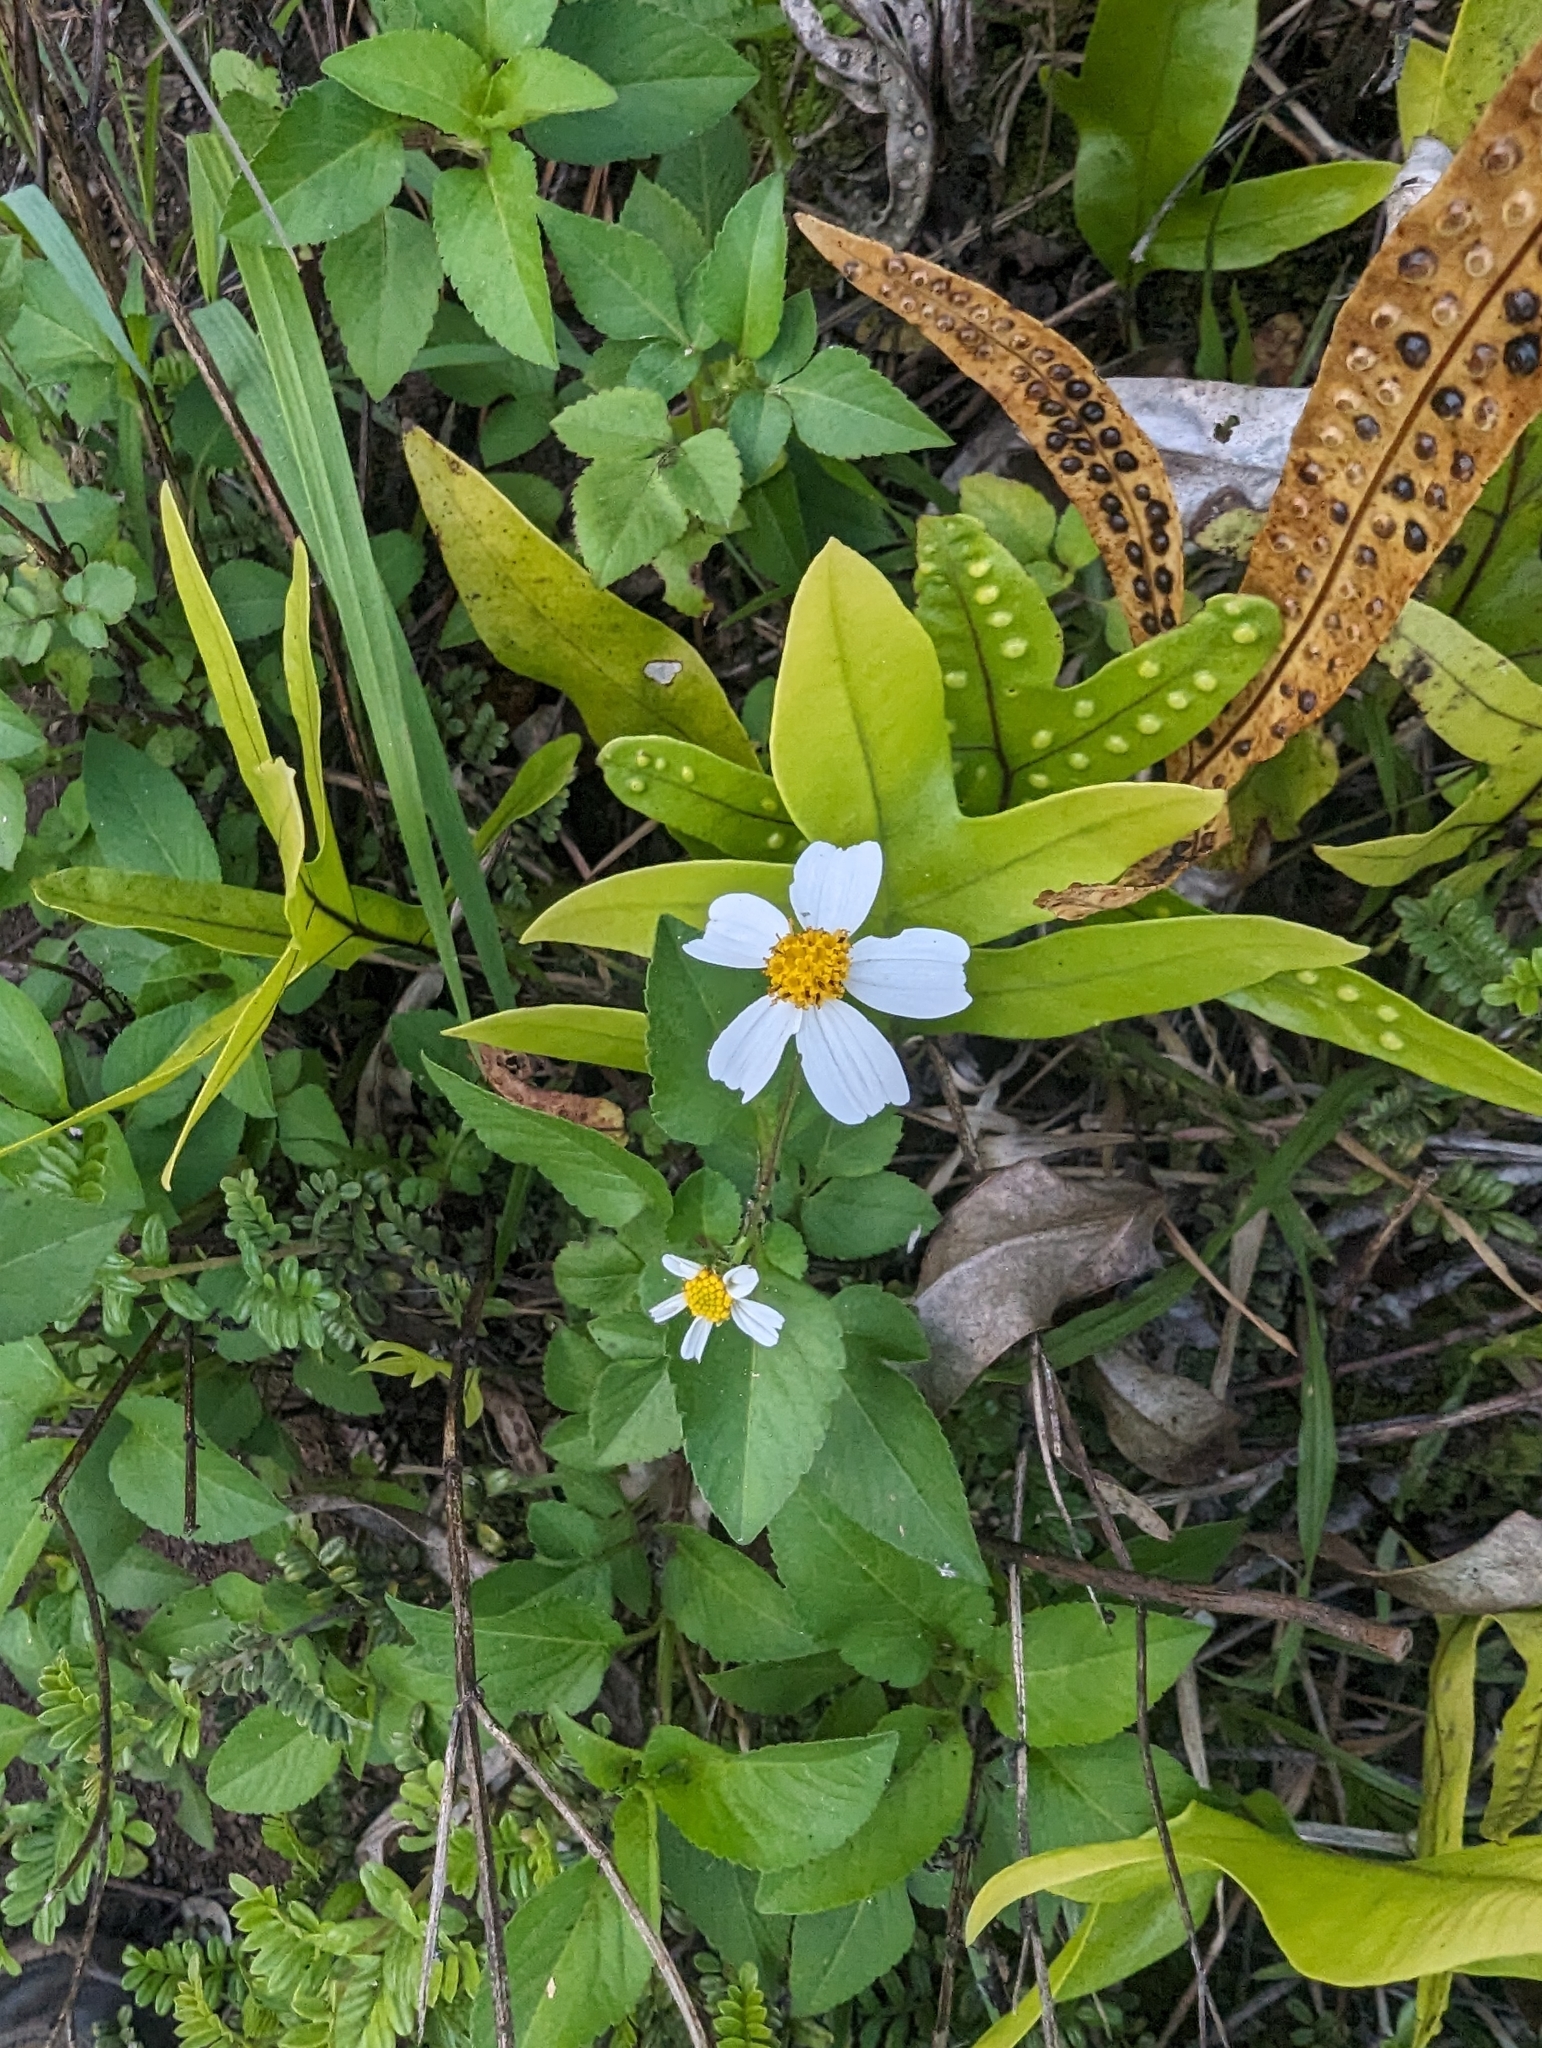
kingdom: Plantae
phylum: Tracheophyta
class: Magnoliopsida
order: Asterales
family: Asteraceae
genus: Bidens
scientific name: Bidens alba
